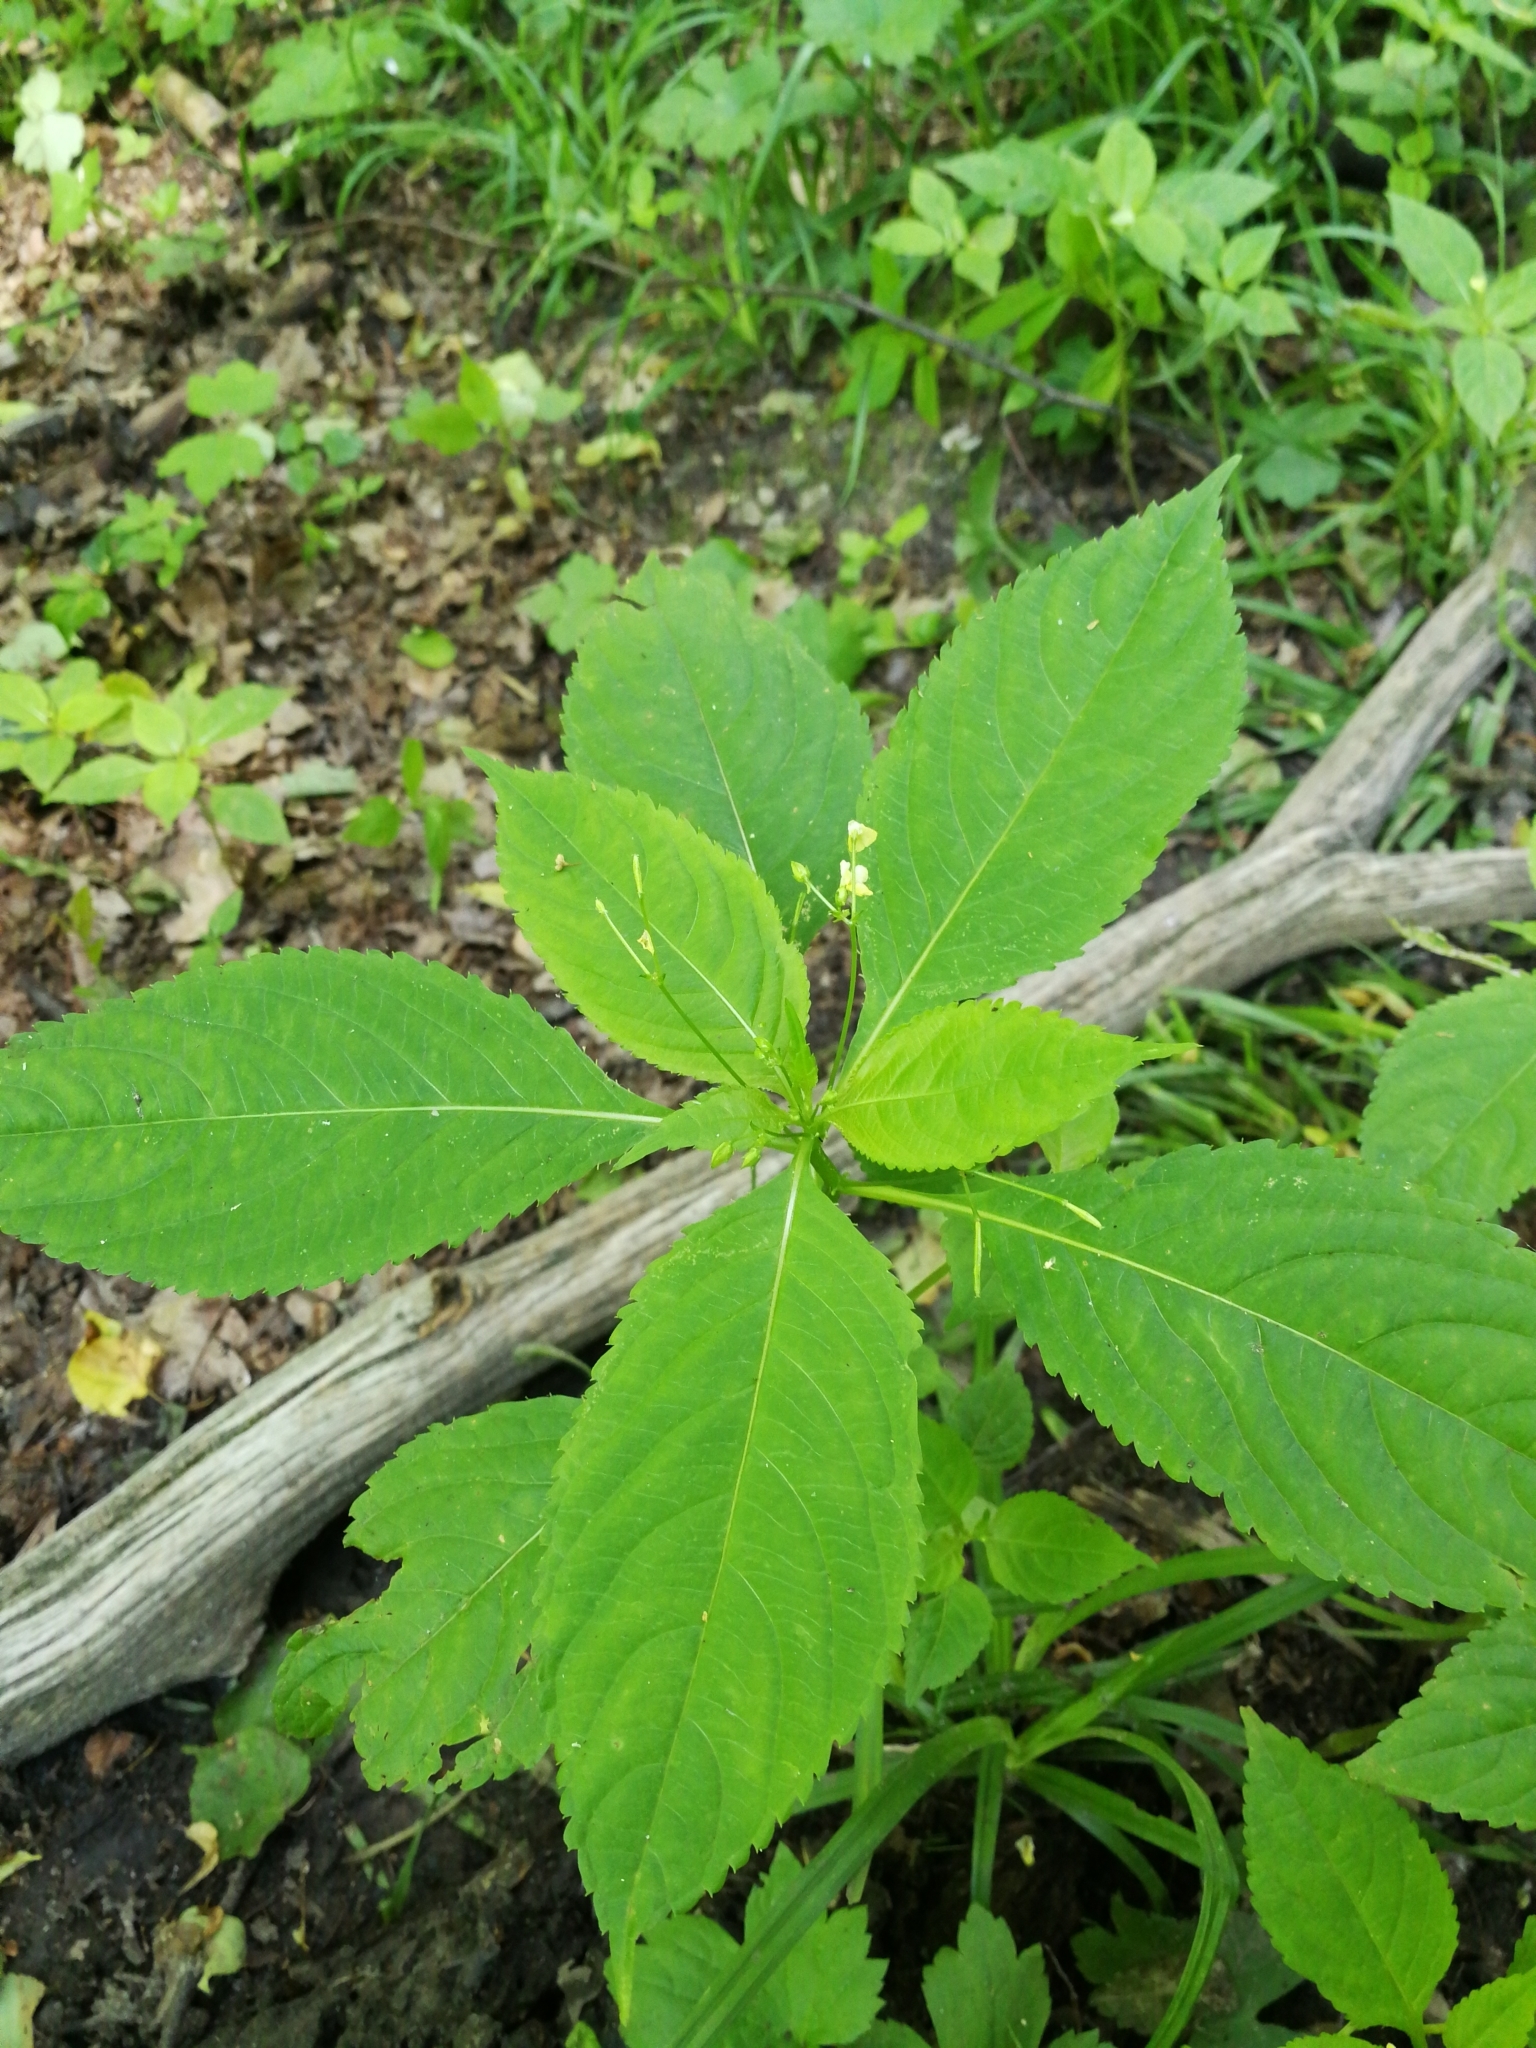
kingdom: Plantae
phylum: Tracheophyta
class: Magnoliopsida
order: Ericales
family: Balsaminaceae
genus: Impatiens
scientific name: Impatiens parviflora
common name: Small balsam
